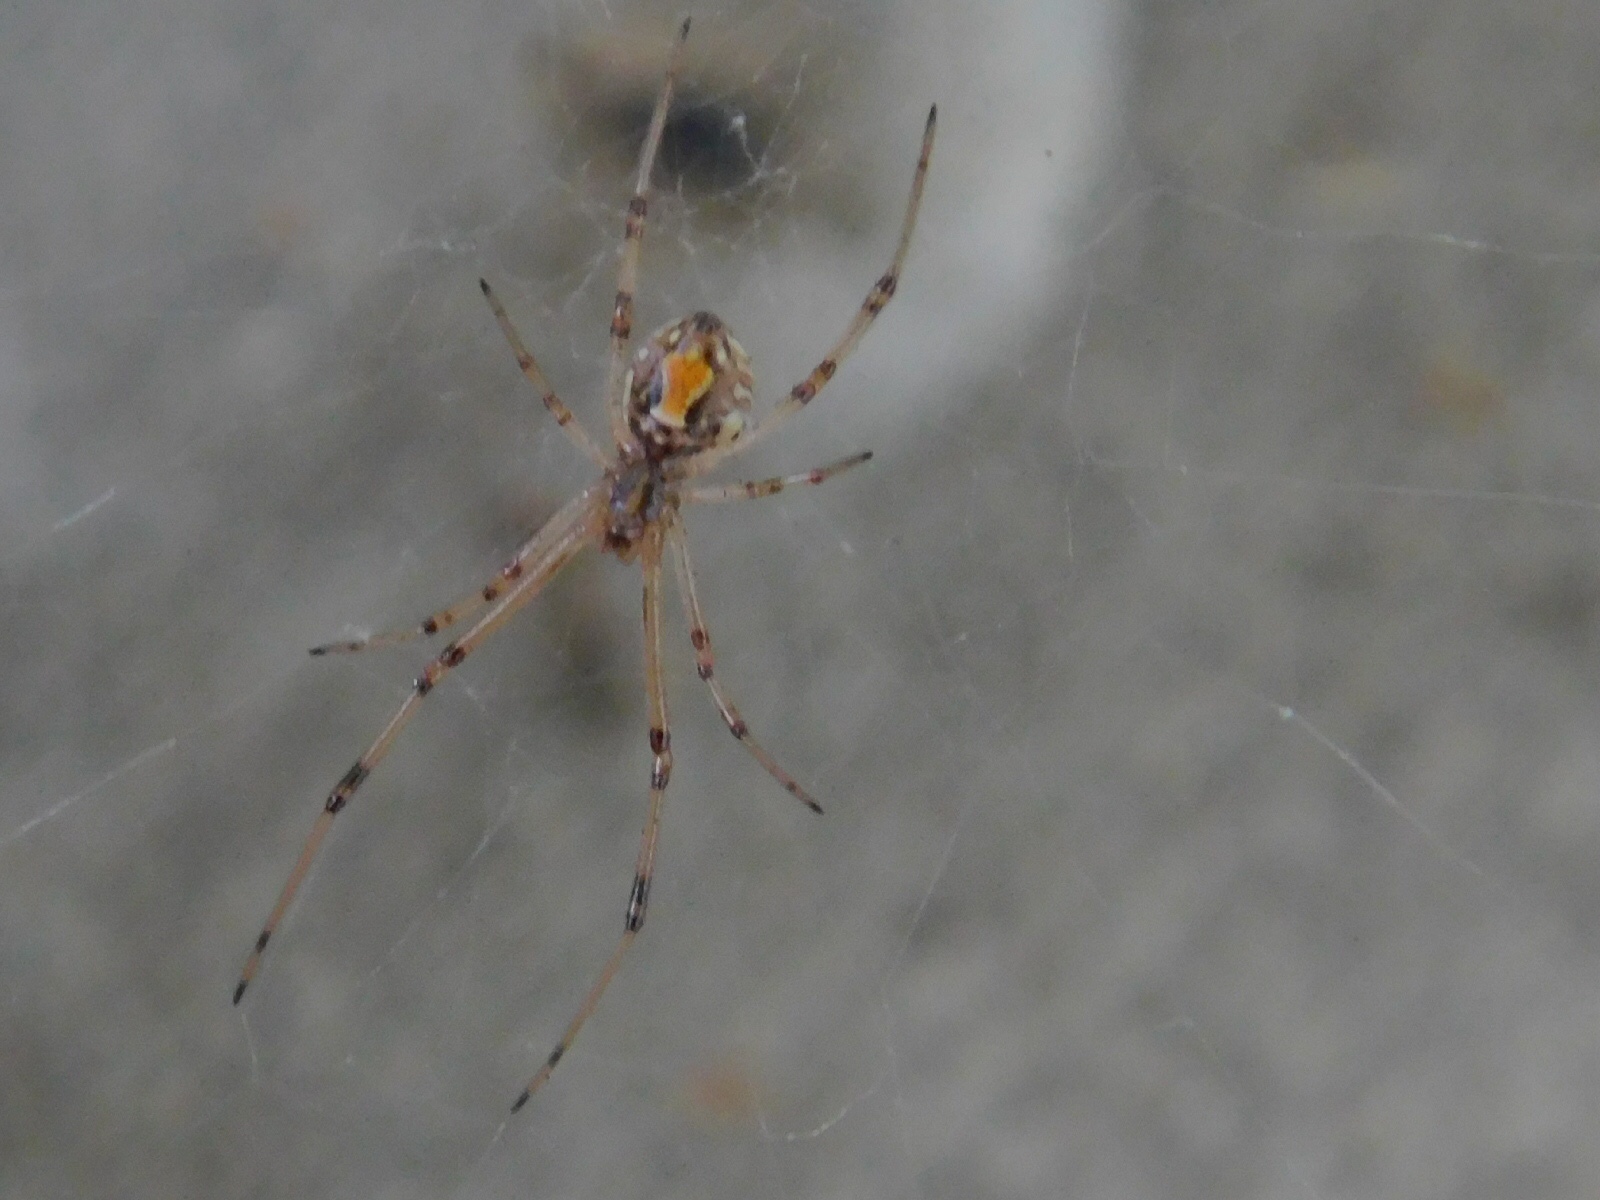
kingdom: Animalia
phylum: Arthropoda
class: Arachnida
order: Araneae
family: Theridiidae
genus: Latrodectus
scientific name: Latrodectus geometricus
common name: Brown widow spider
